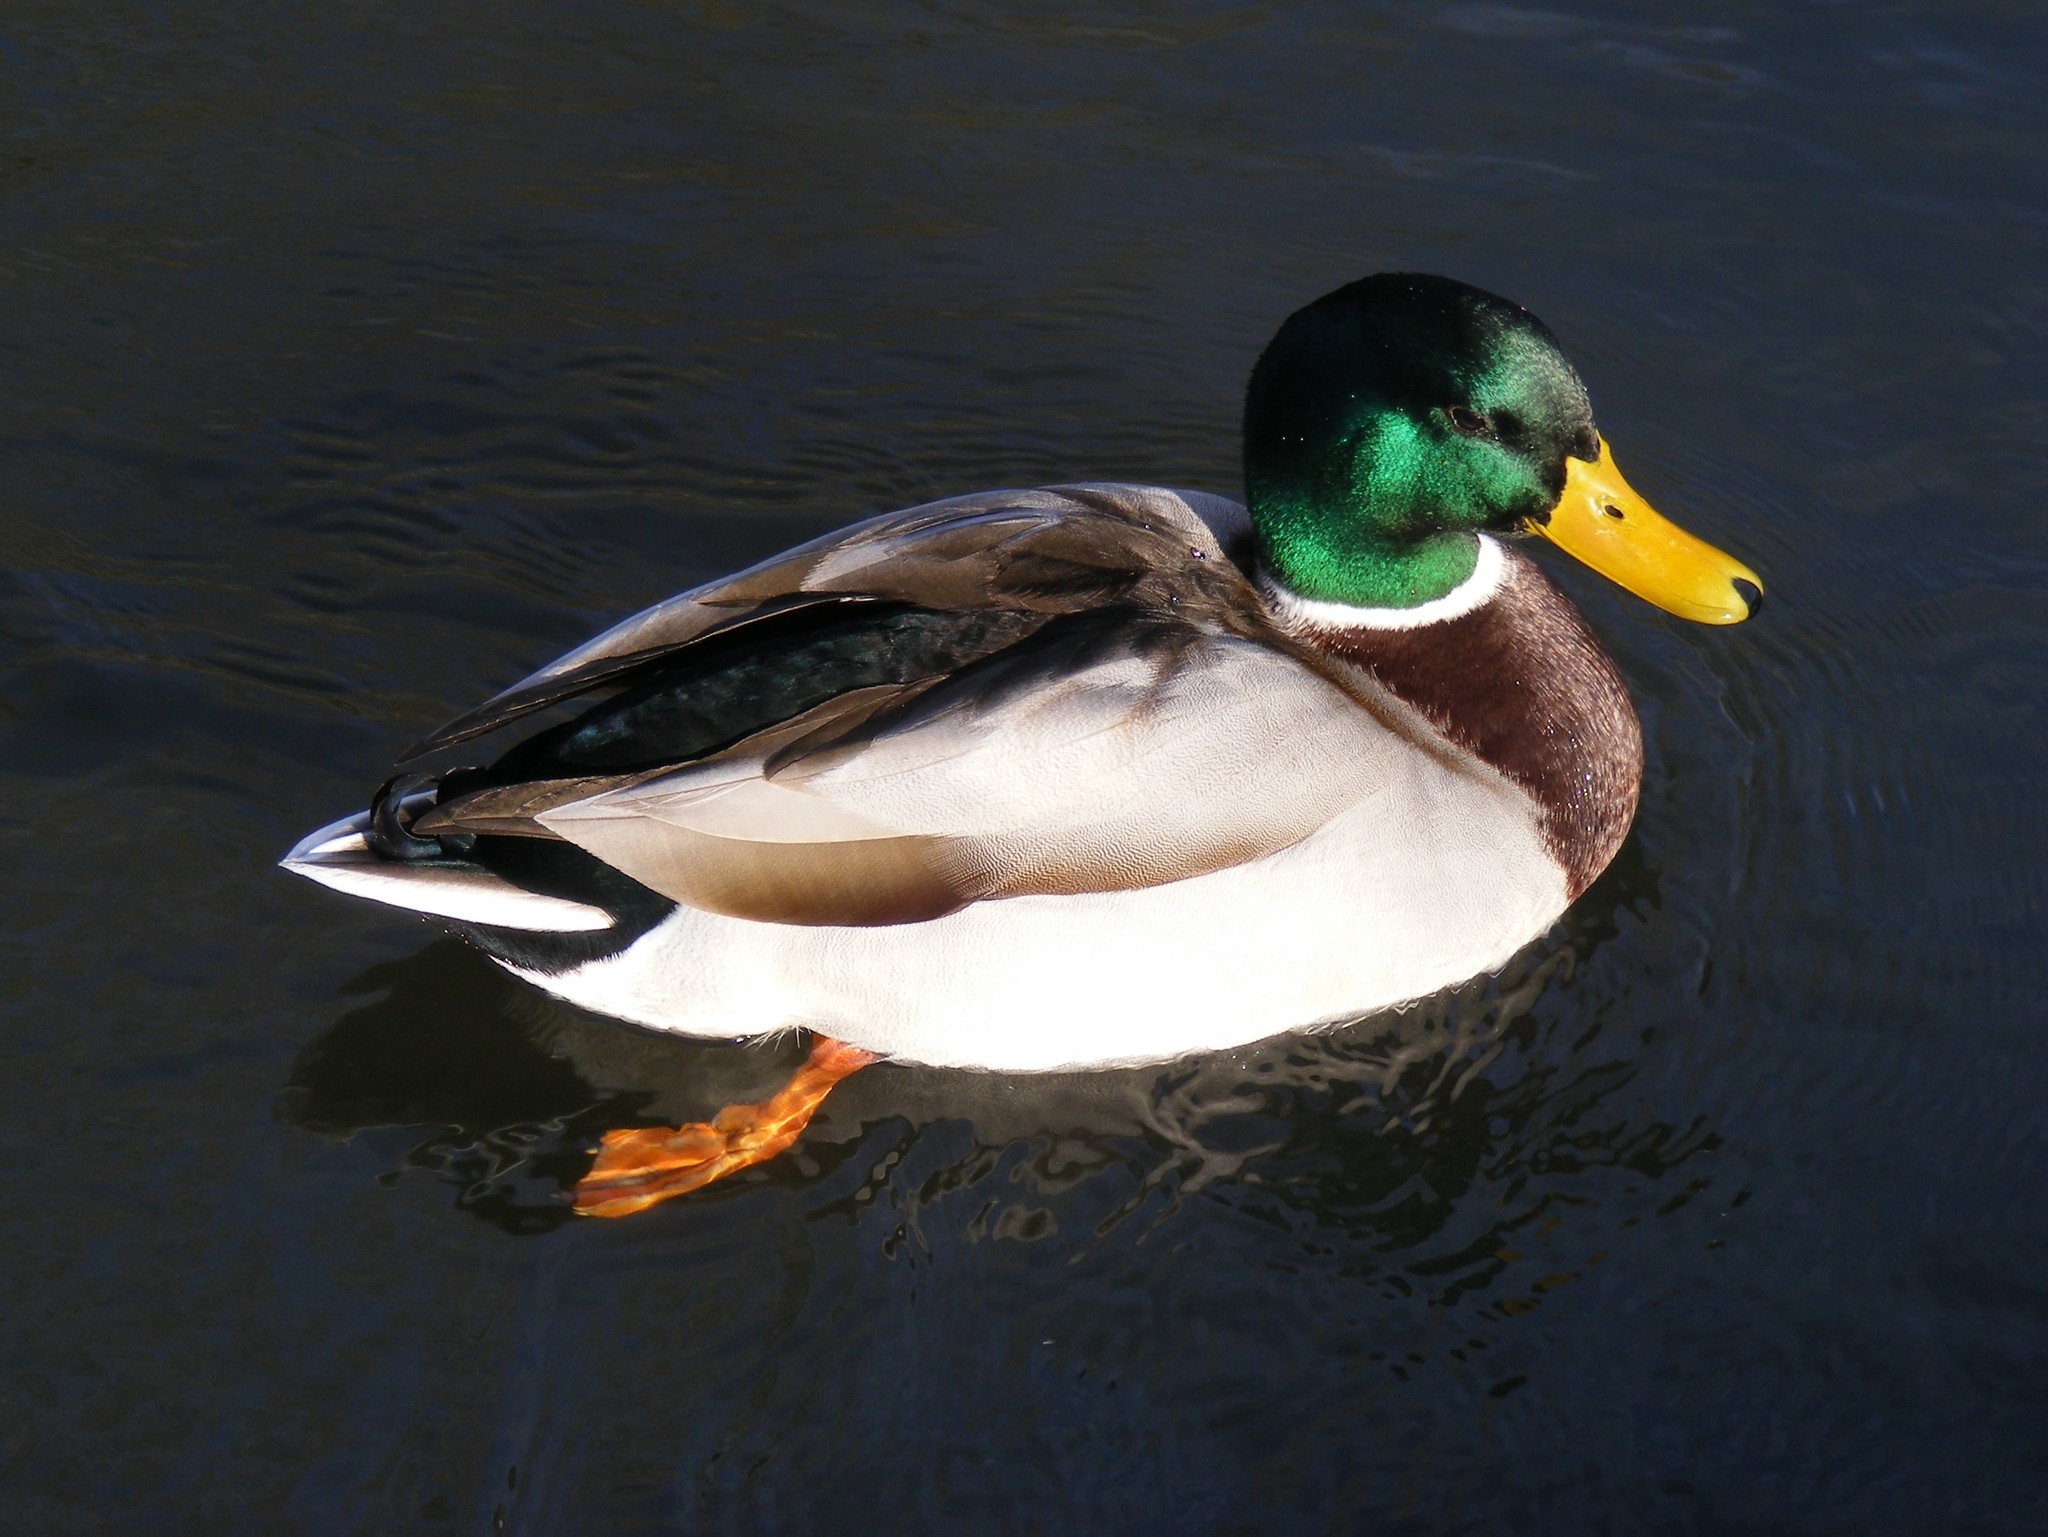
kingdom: Animalia
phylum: Chordata
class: Aves
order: Anseriformes
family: Anatidae
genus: Anas
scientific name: Anas platyrhynchos
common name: Mallard
